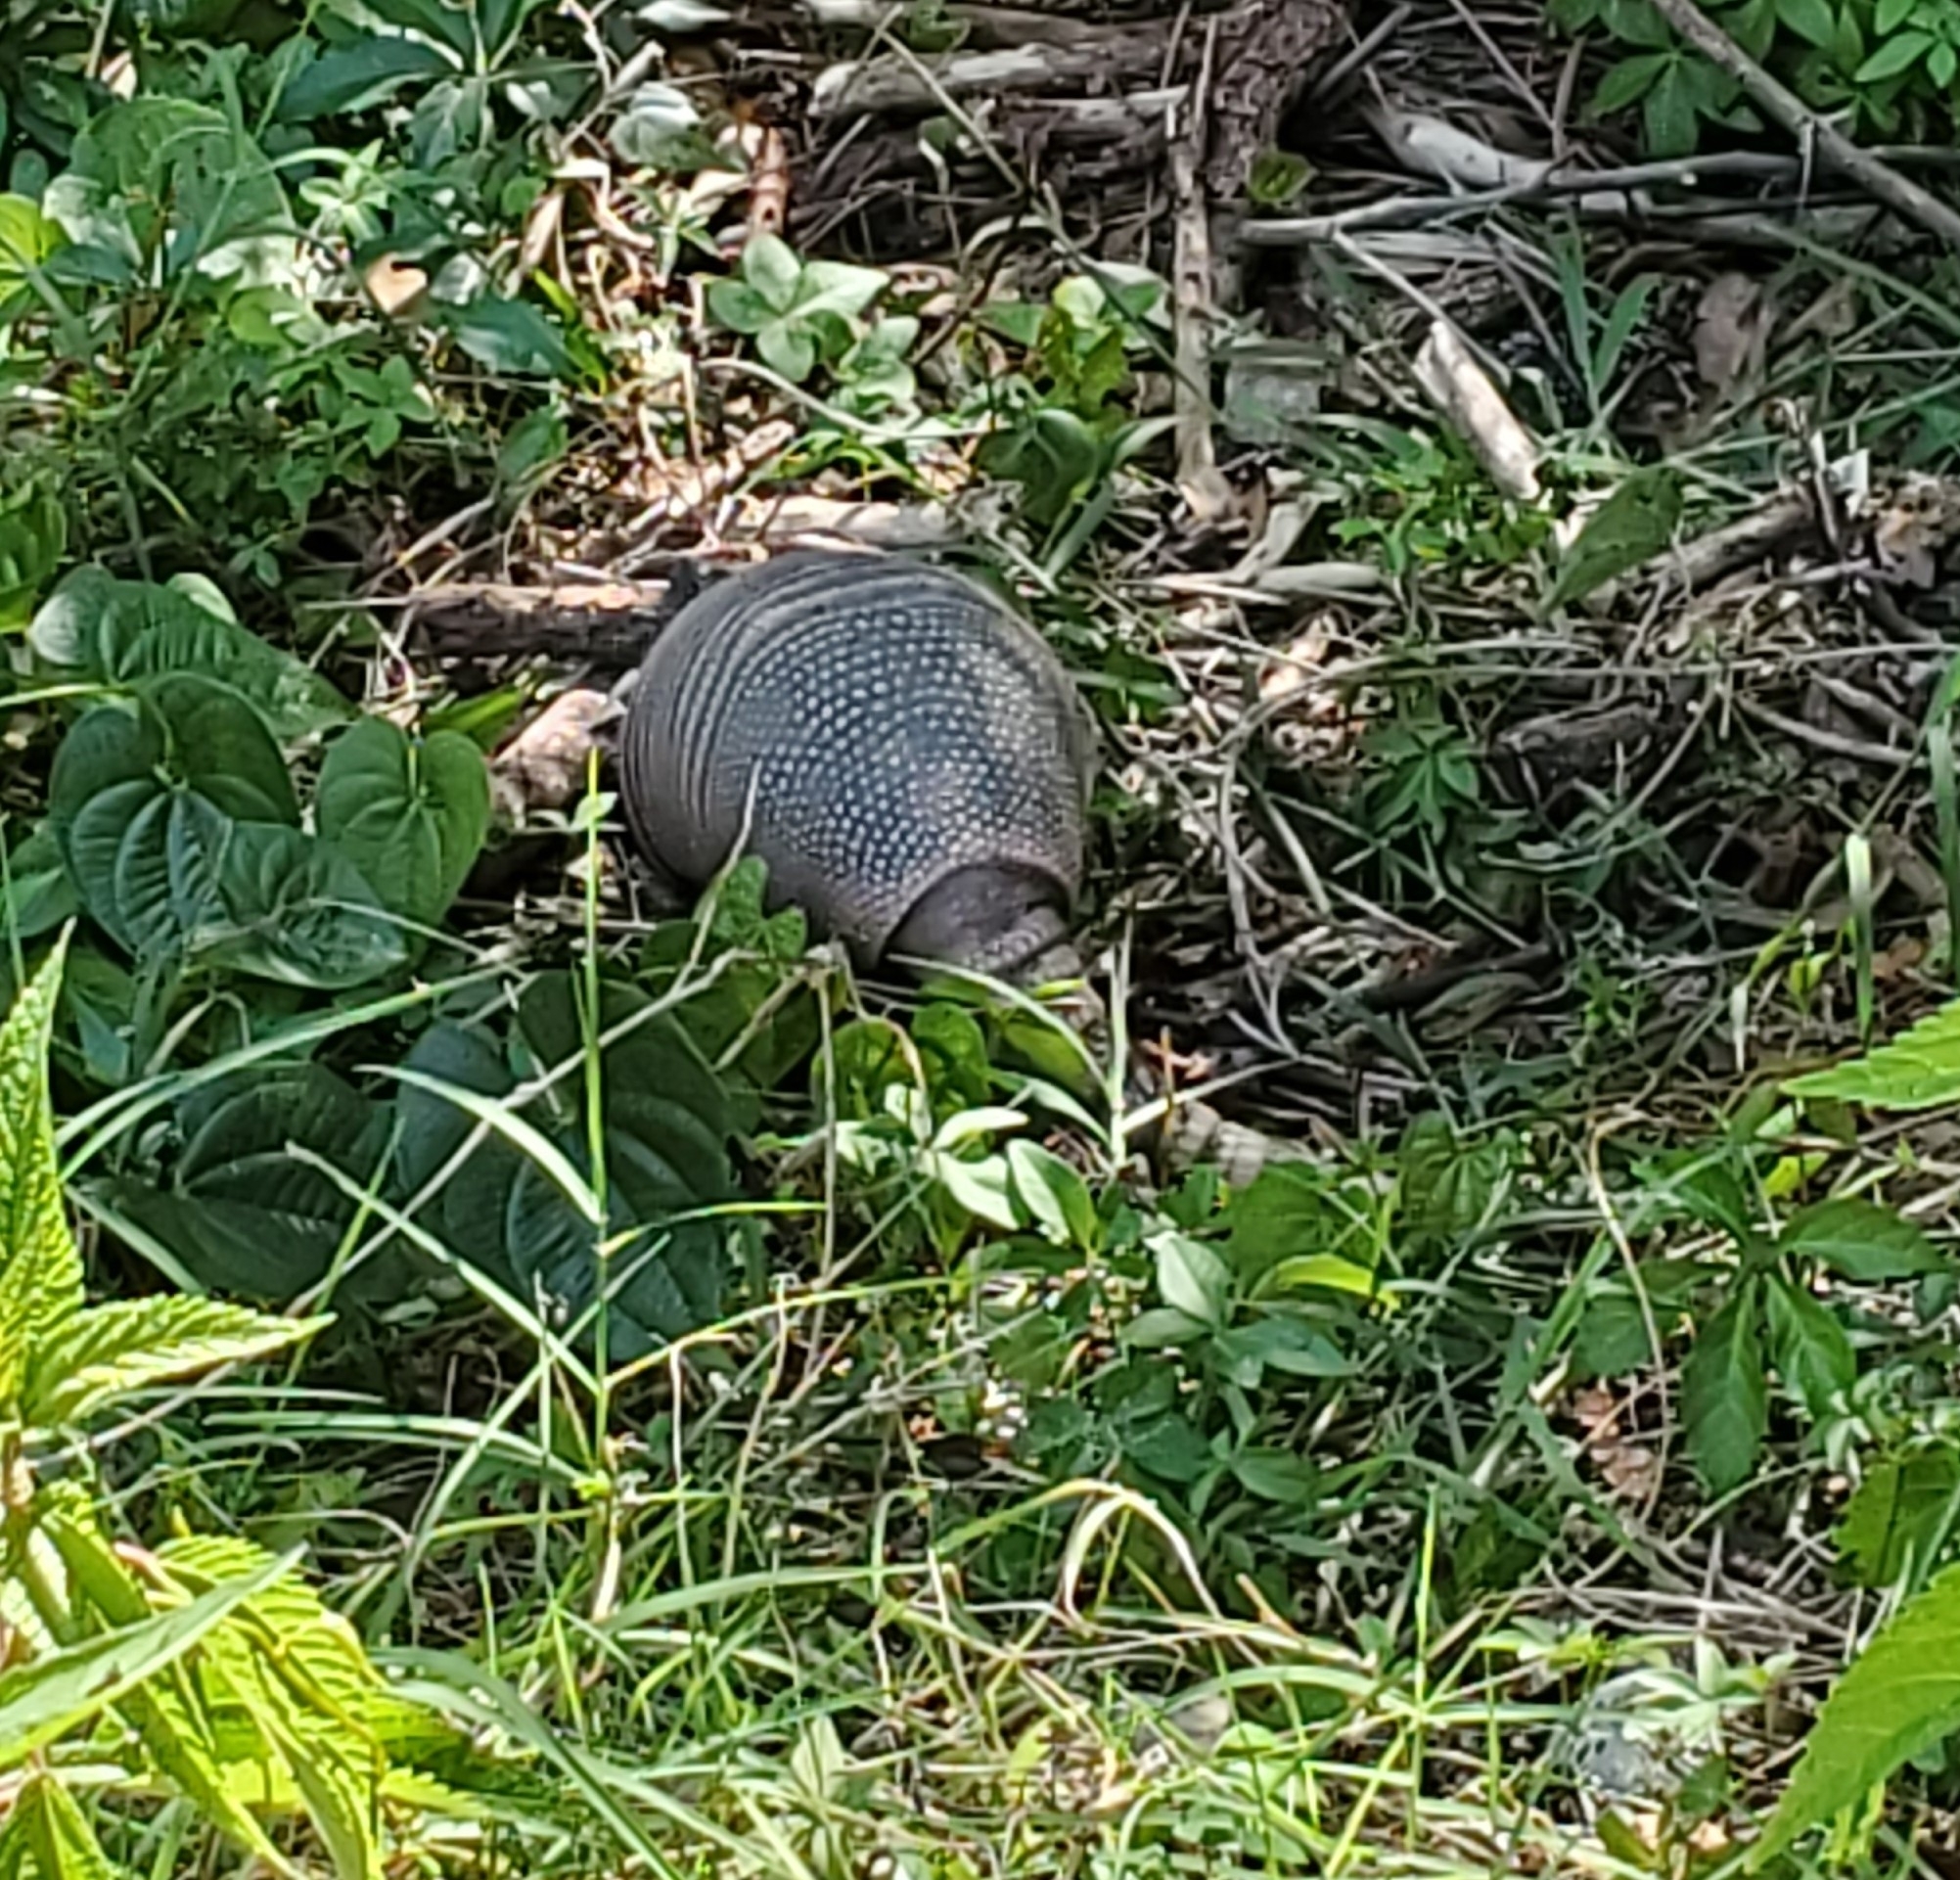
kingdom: Animalia
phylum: Chordata
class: Mammalia
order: Cingulata
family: Dasypodidae
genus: Dasypus
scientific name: Dasypus novemcinctus
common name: Nine-banded armadillo
